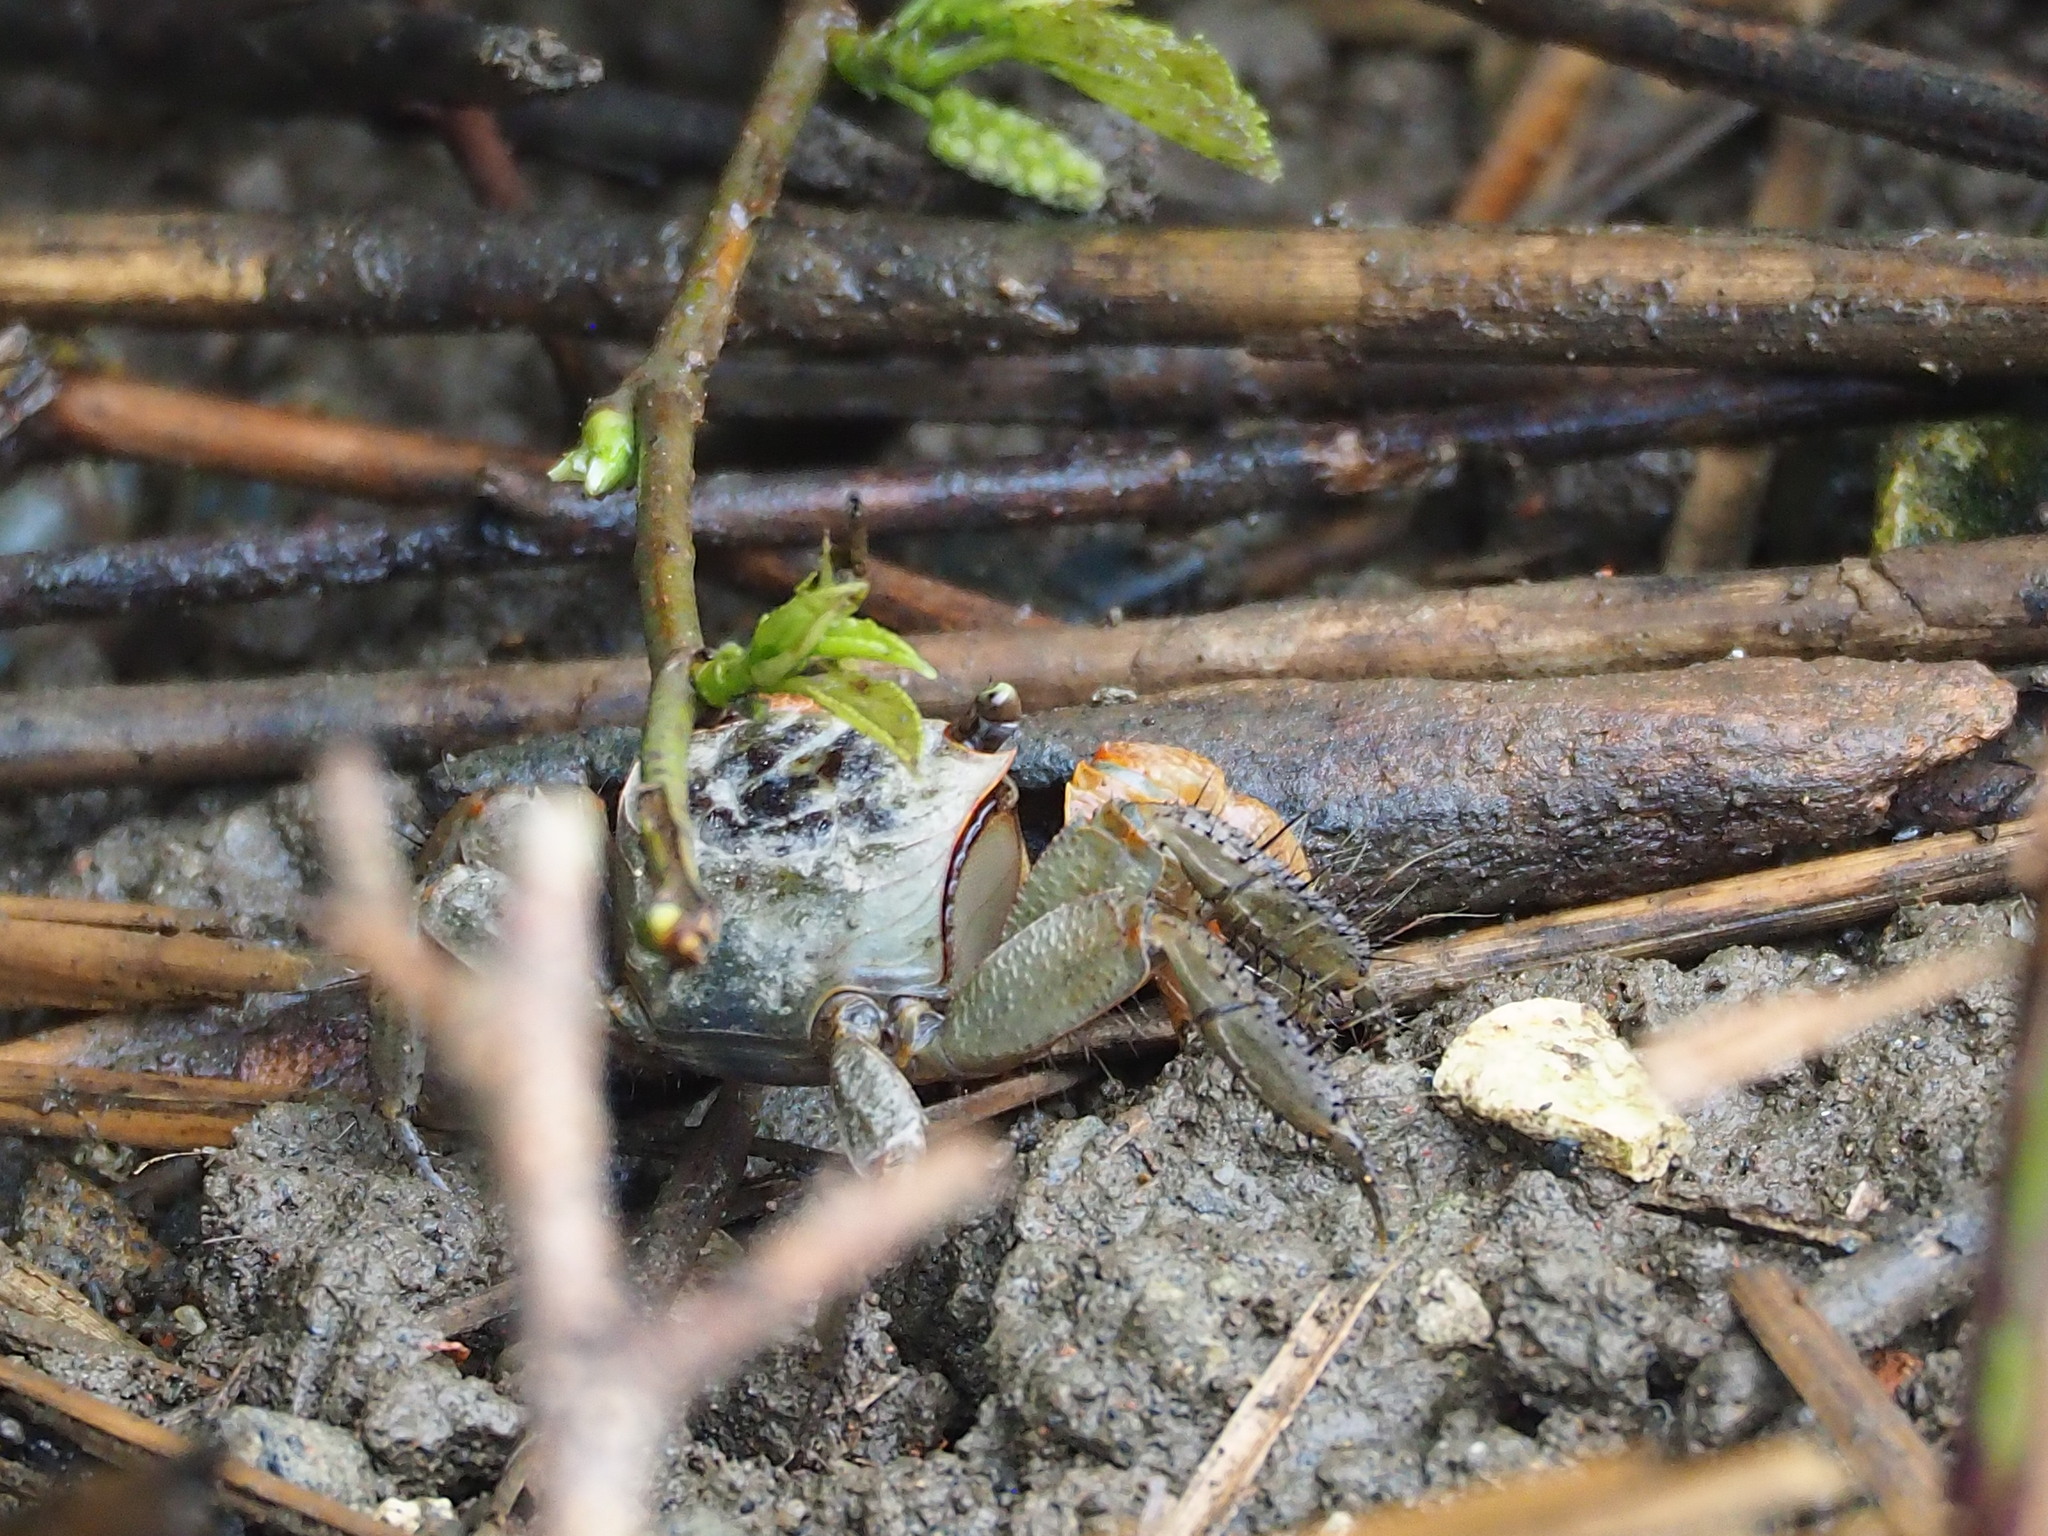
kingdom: Animalia
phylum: Arthropoda
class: Malacostraca
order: Decapoda
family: Sesarmidae
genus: Orisarma
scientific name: Orisarma dehaani
